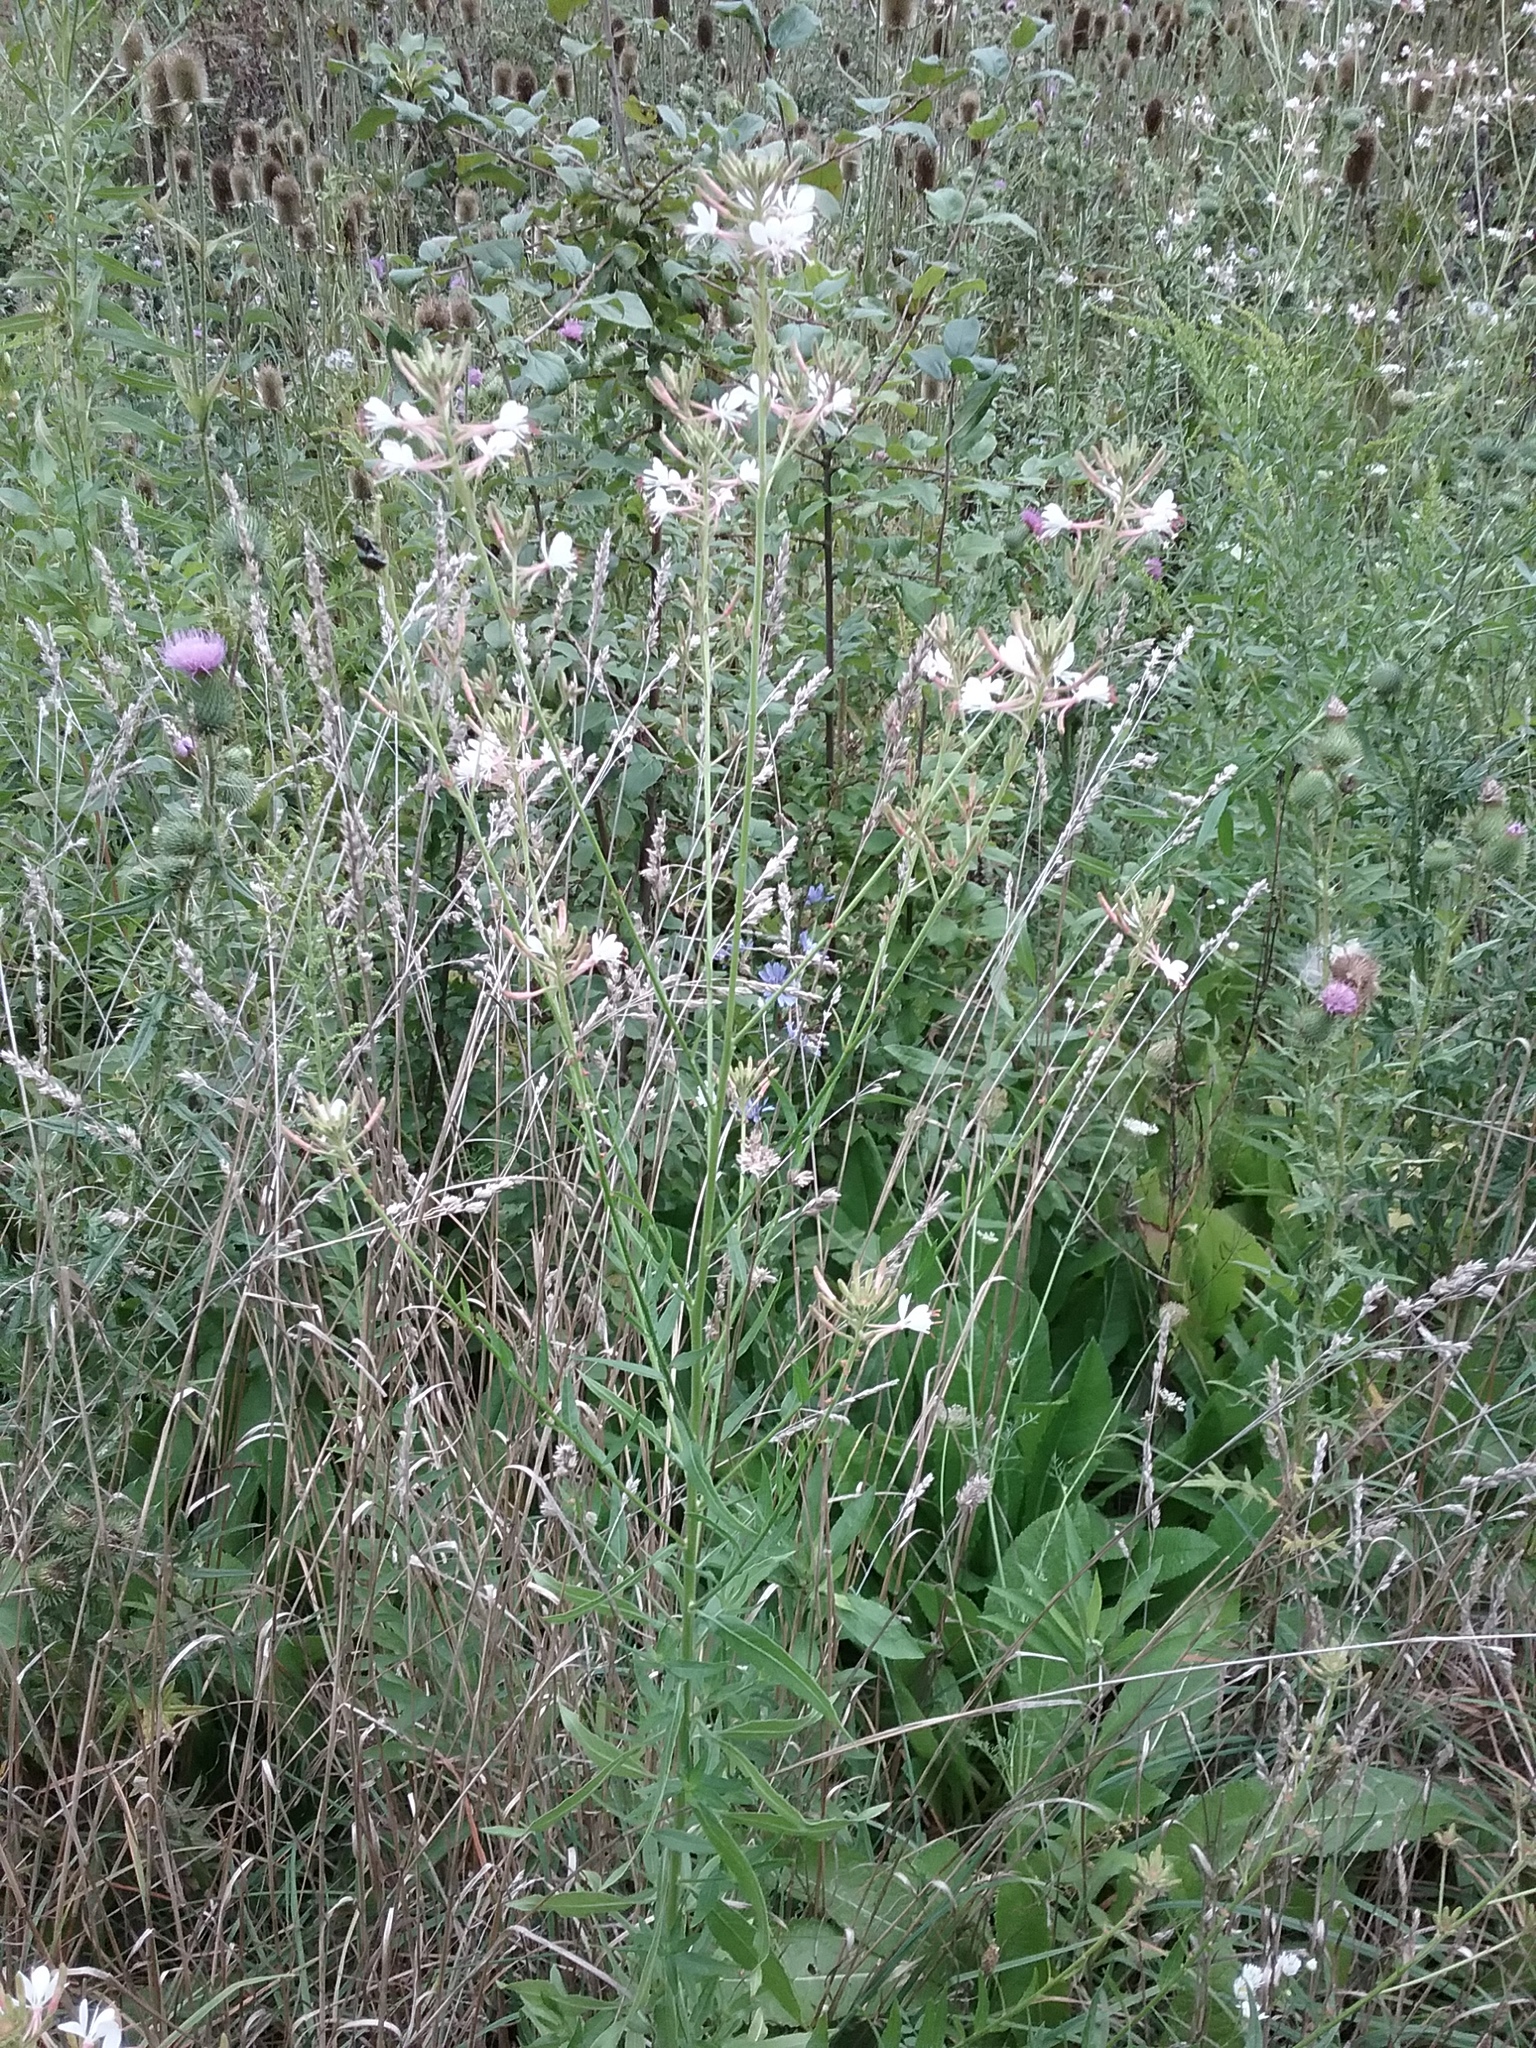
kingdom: Plantae
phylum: Tracheophyta
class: Magnoliopsida
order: Myrtales
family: Onagraceae
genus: Oenothera
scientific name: Oenothera gaura
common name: Biennial beeblossom
